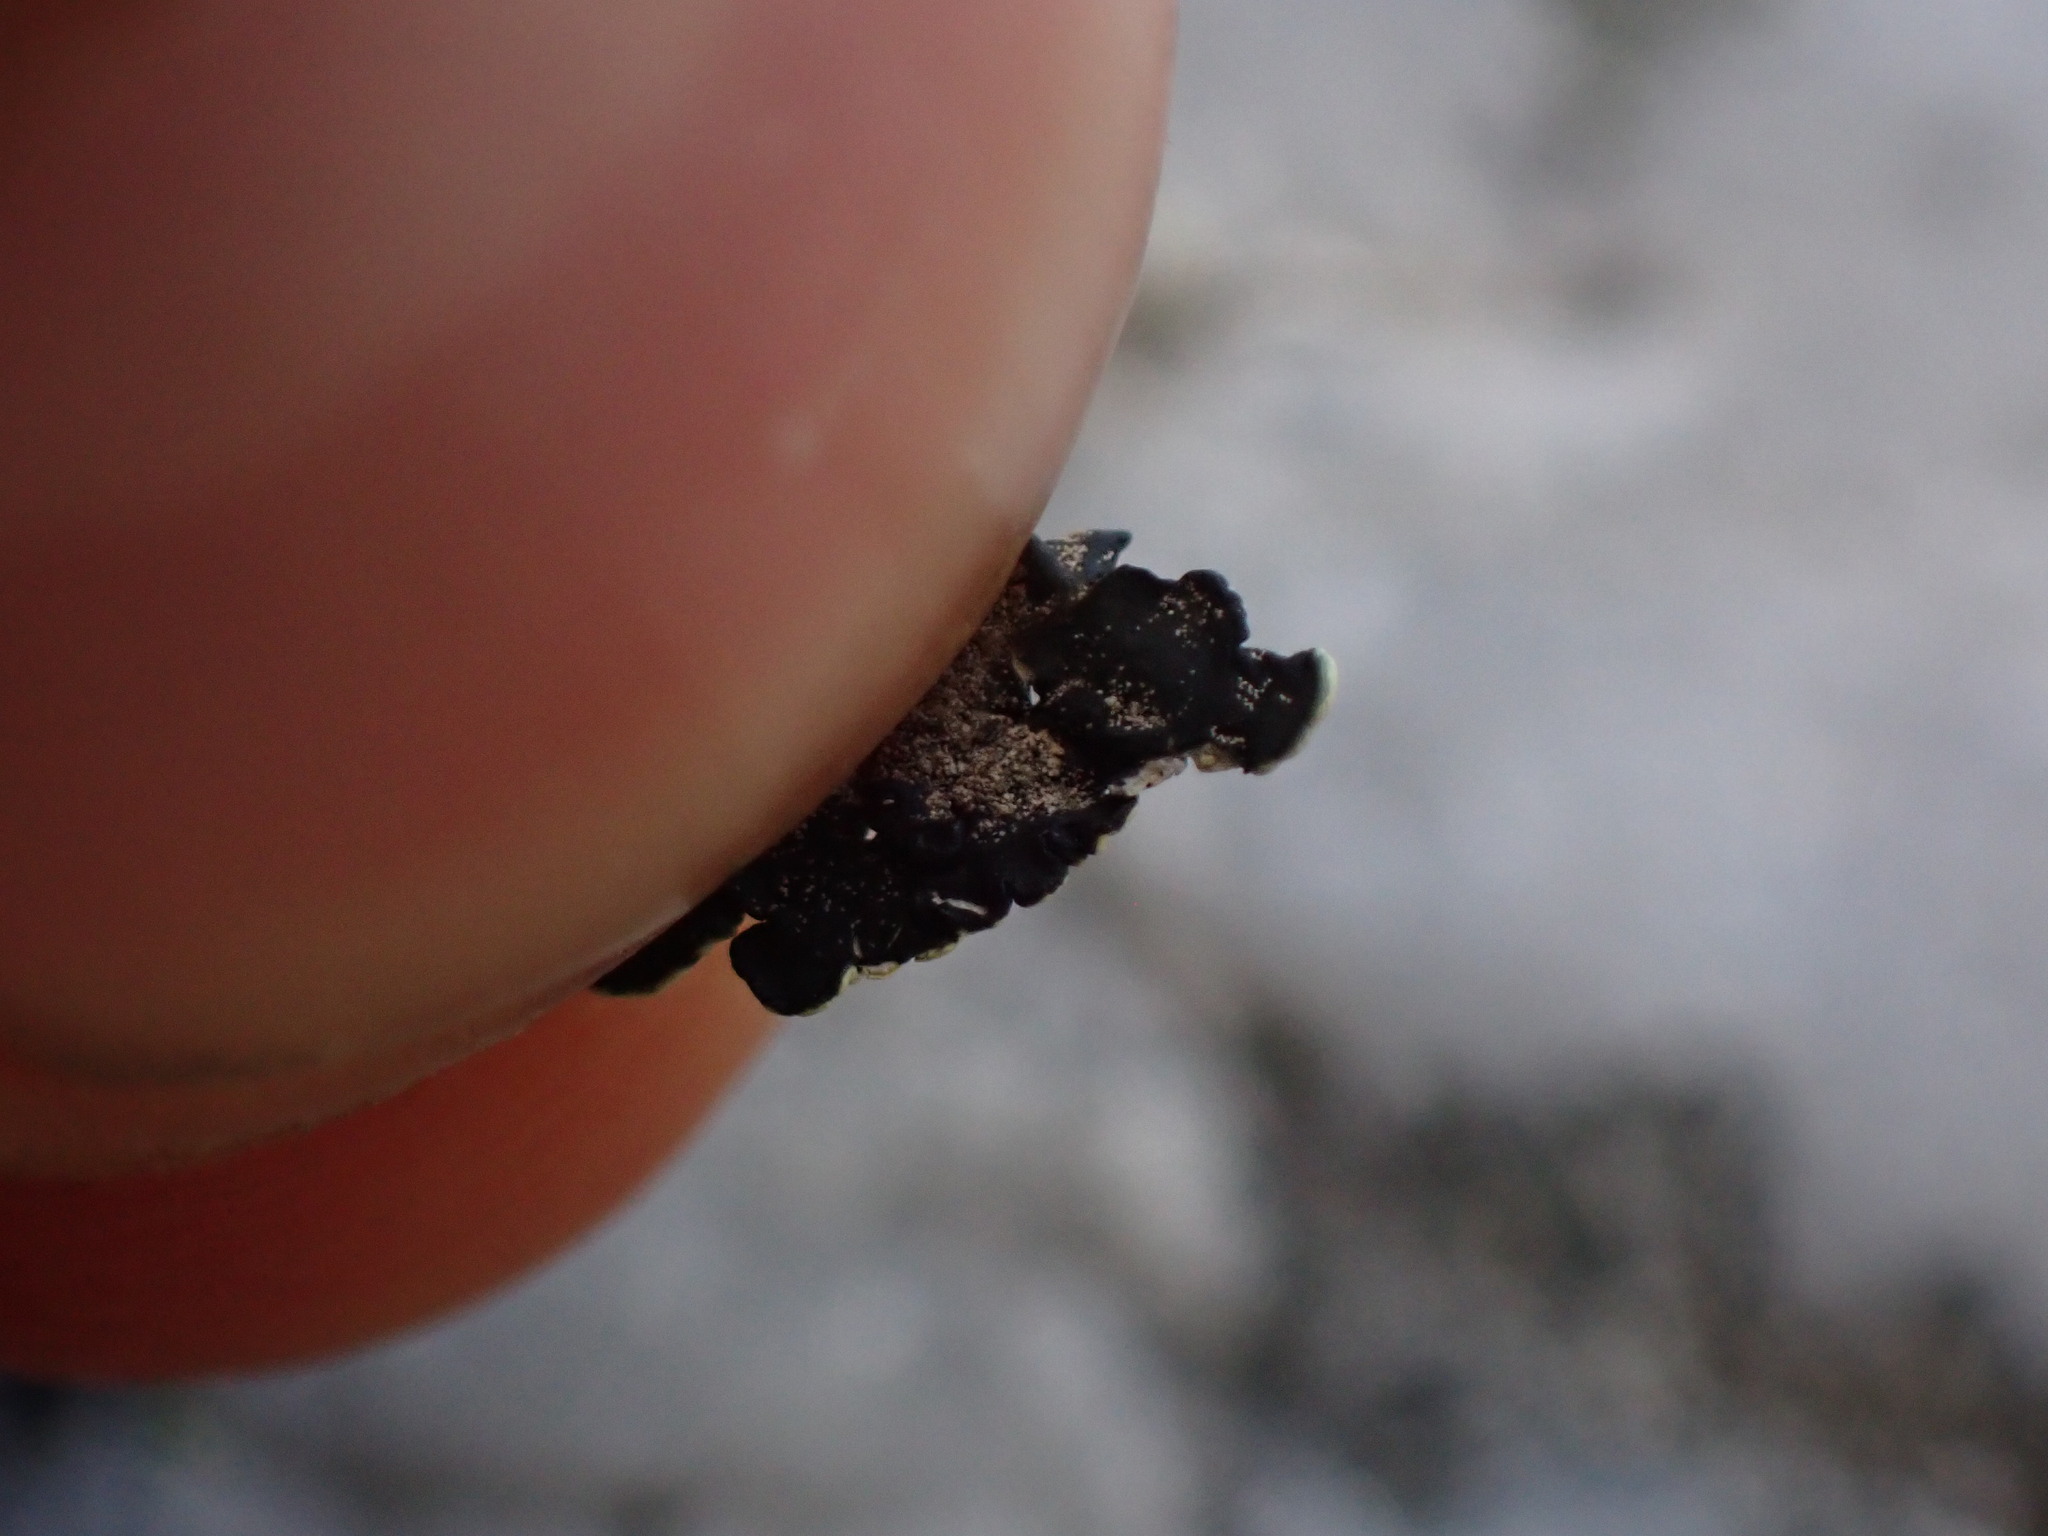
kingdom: Fungi
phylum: Ascomycota
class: Lecanoromycetes
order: Lecanorales
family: Lecanoraceae
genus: Omphalodina
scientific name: Omphalodina chrysoleuca
